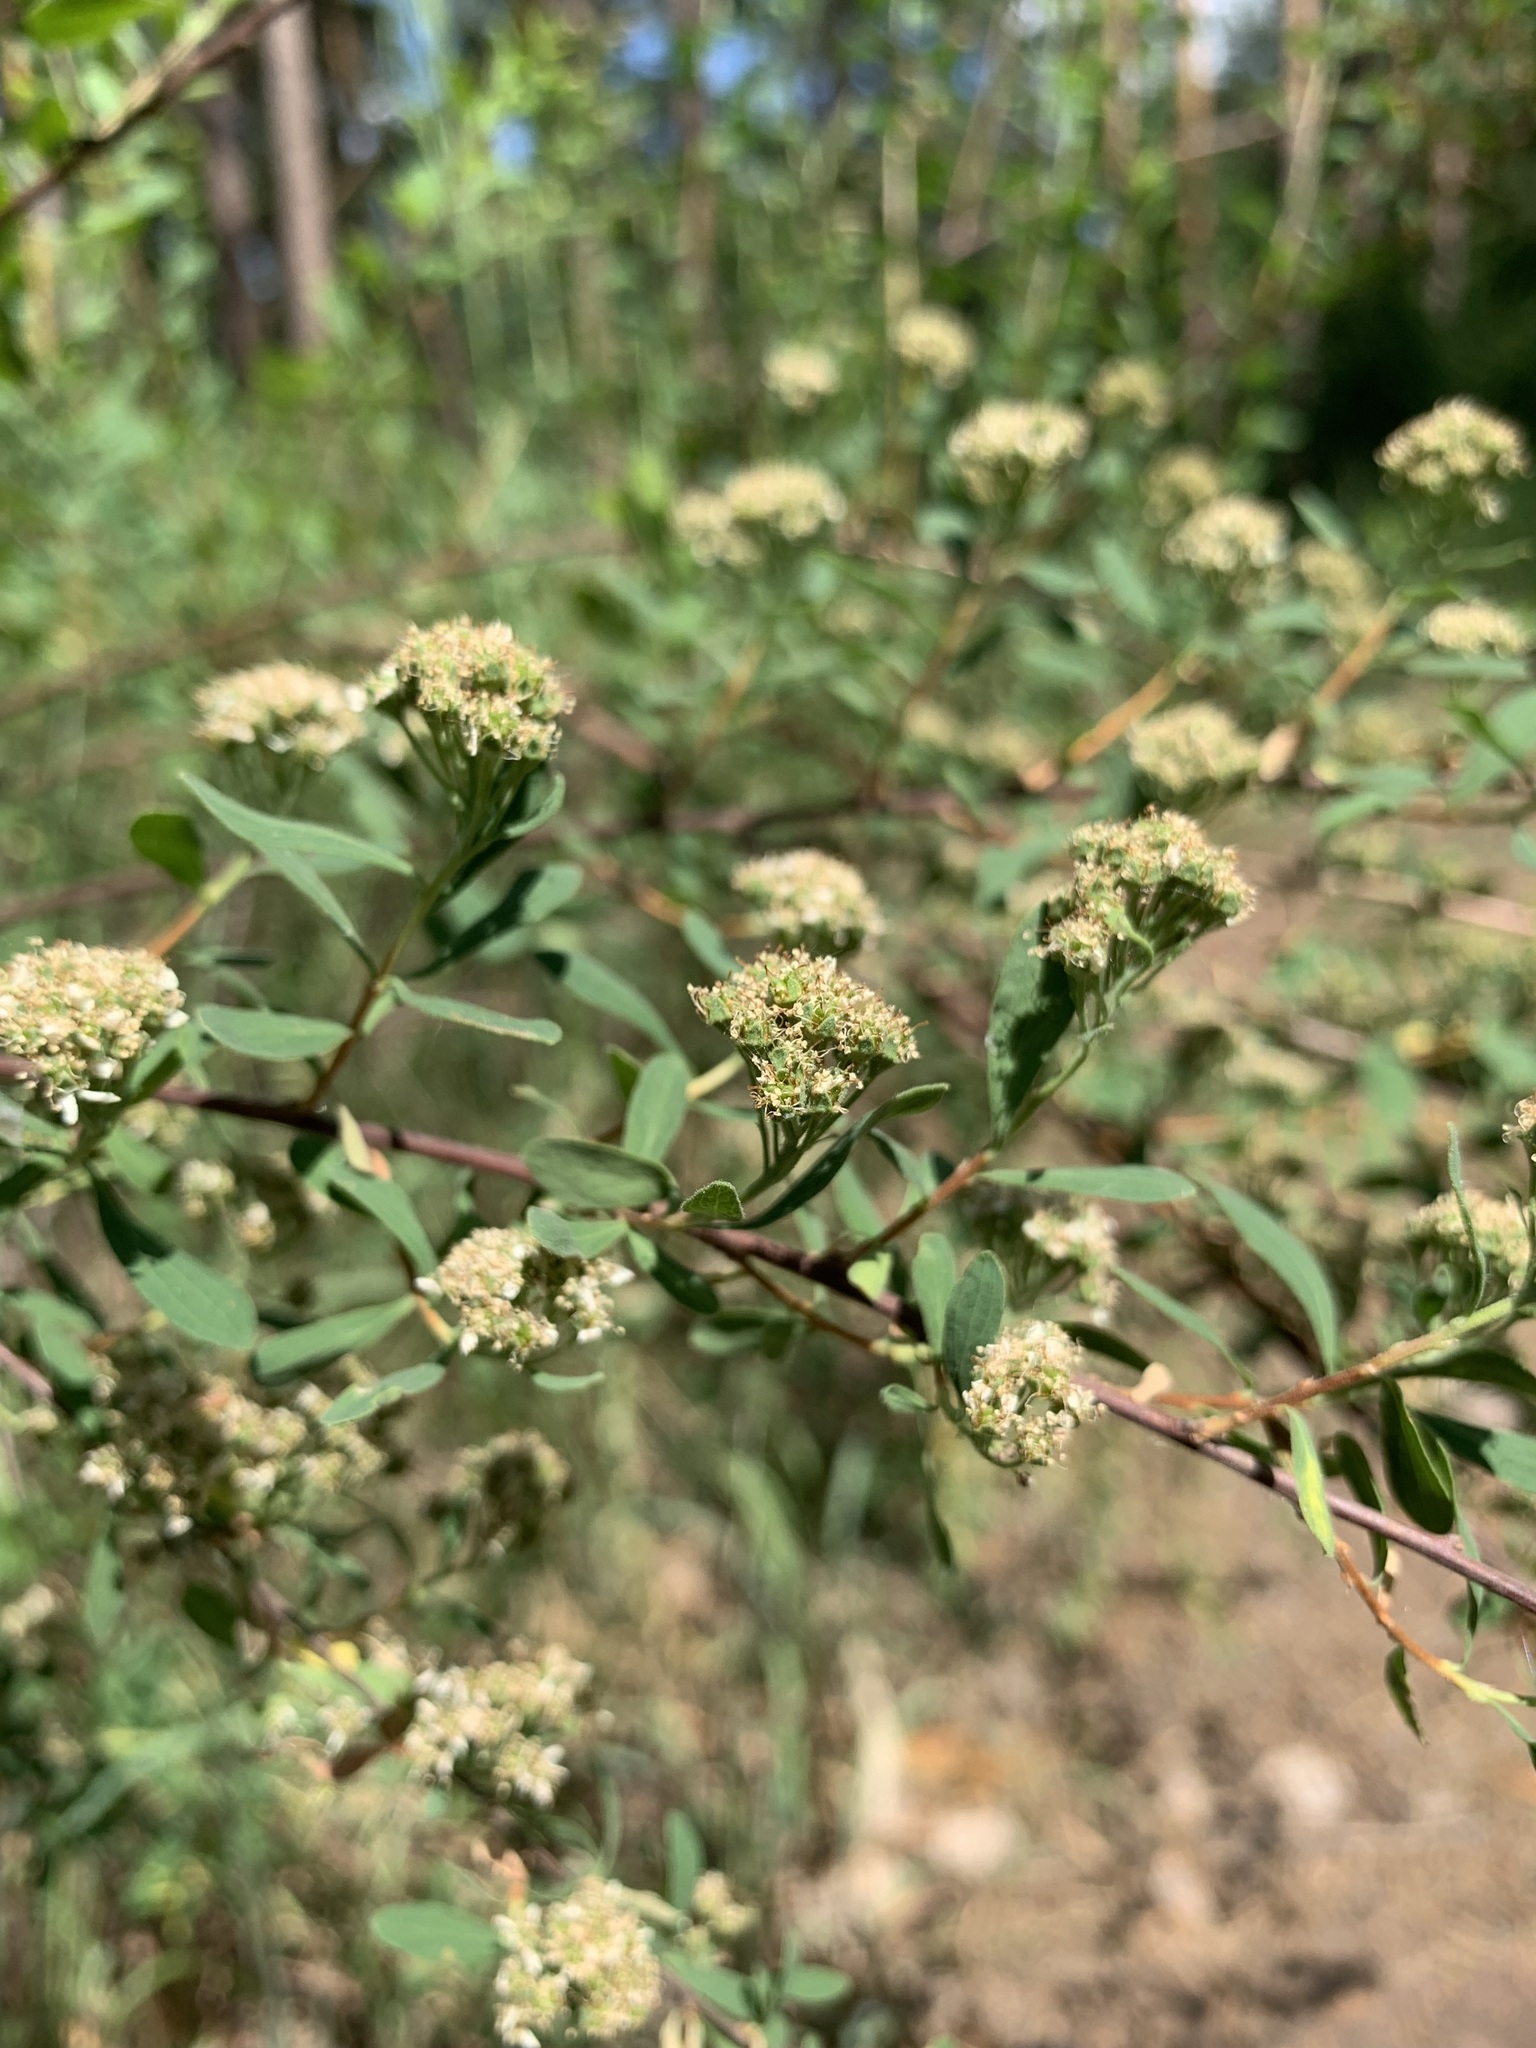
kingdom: Plantae
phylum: Tracheophyta
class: Magnoliopsida
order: Rosales
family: Rosaceae
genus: Spiraea
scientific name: Spiraea crenata
